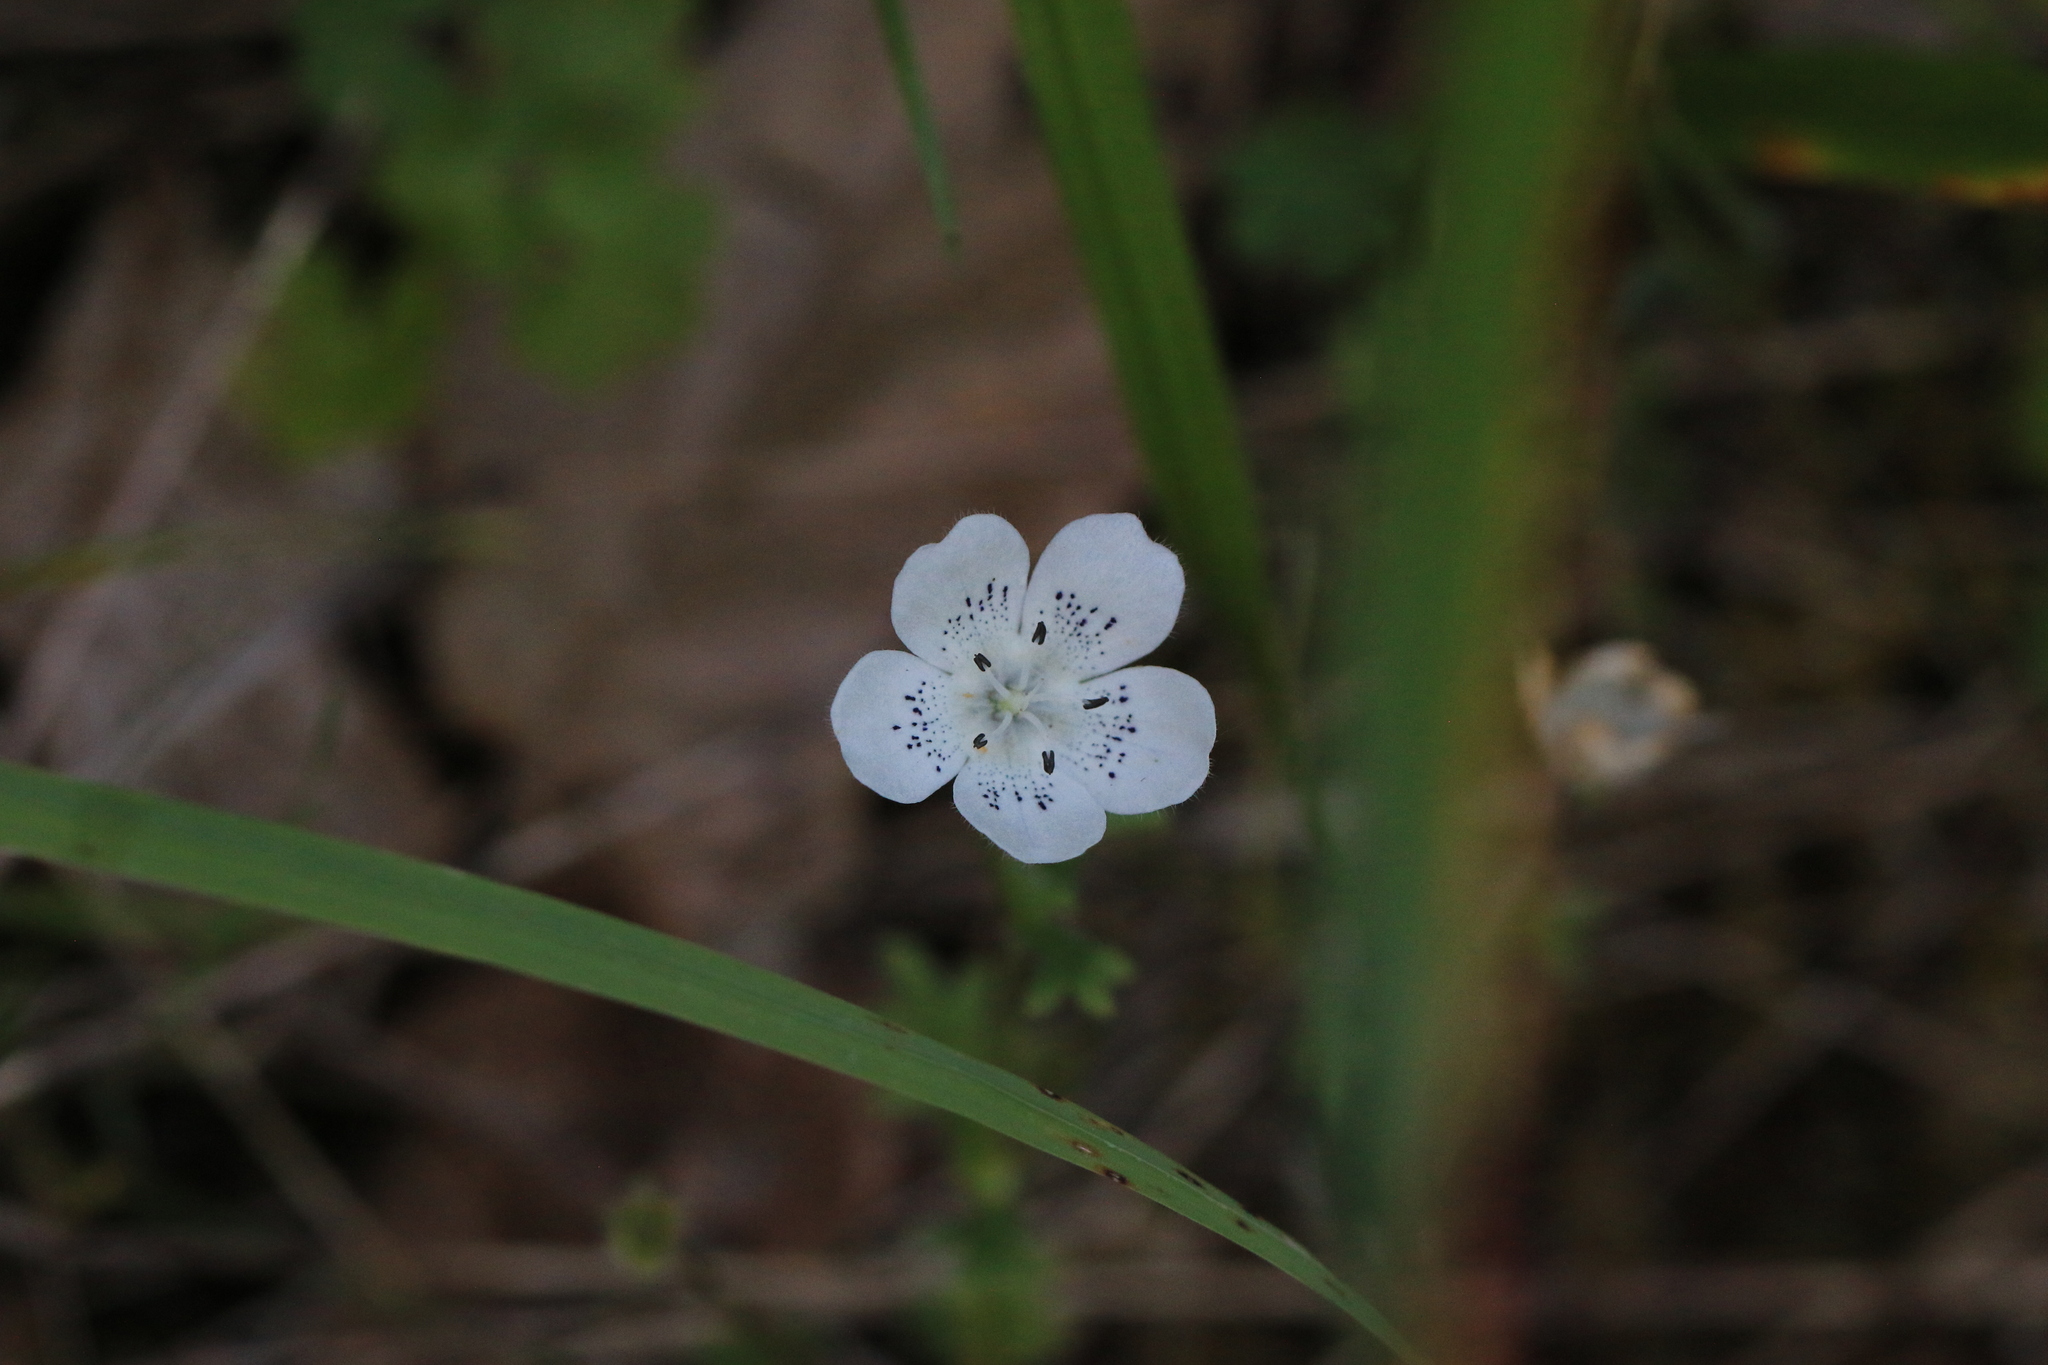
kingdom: Plantae
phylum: Tracheophyta
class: Magnoliopsida
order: Boraginales
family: Hydrophyllaceae
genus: Nemophila
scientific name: Nemophila menziesii
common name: Baby's-blue-eyes
